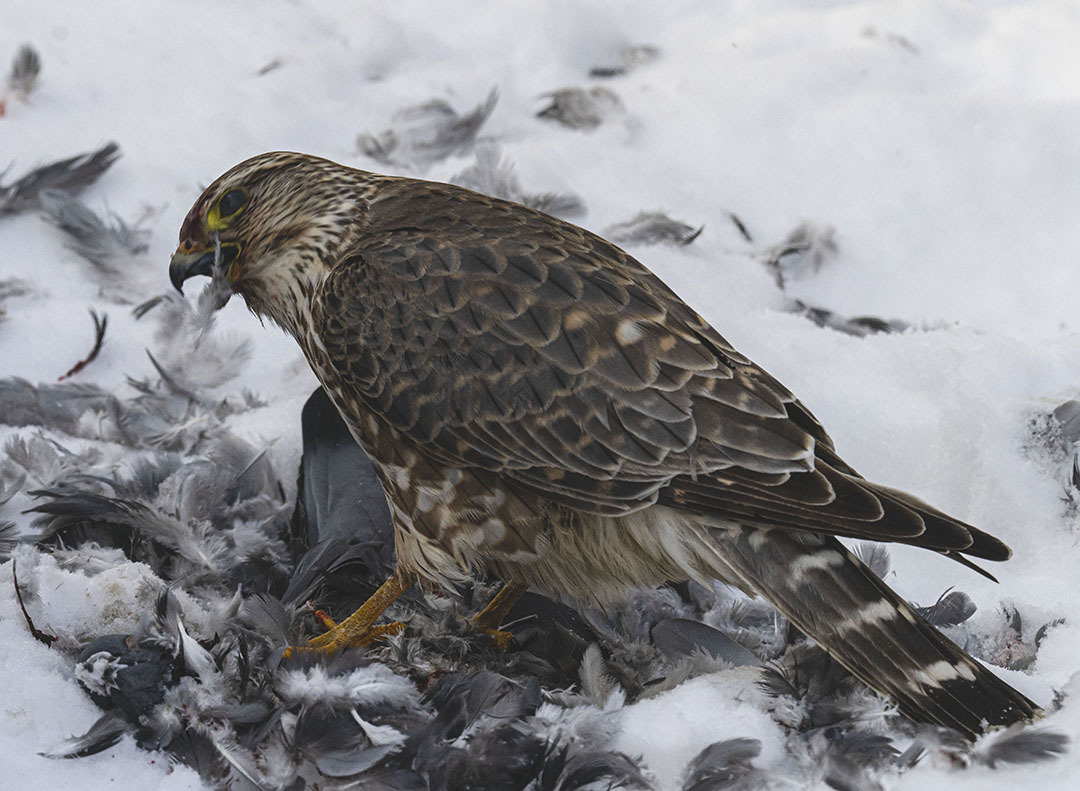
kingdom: Animalia
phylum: Chordata
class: Aves
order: Falconiformes
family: Falconidae
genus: Falco
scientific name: Falco columbarius
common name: Merlin
